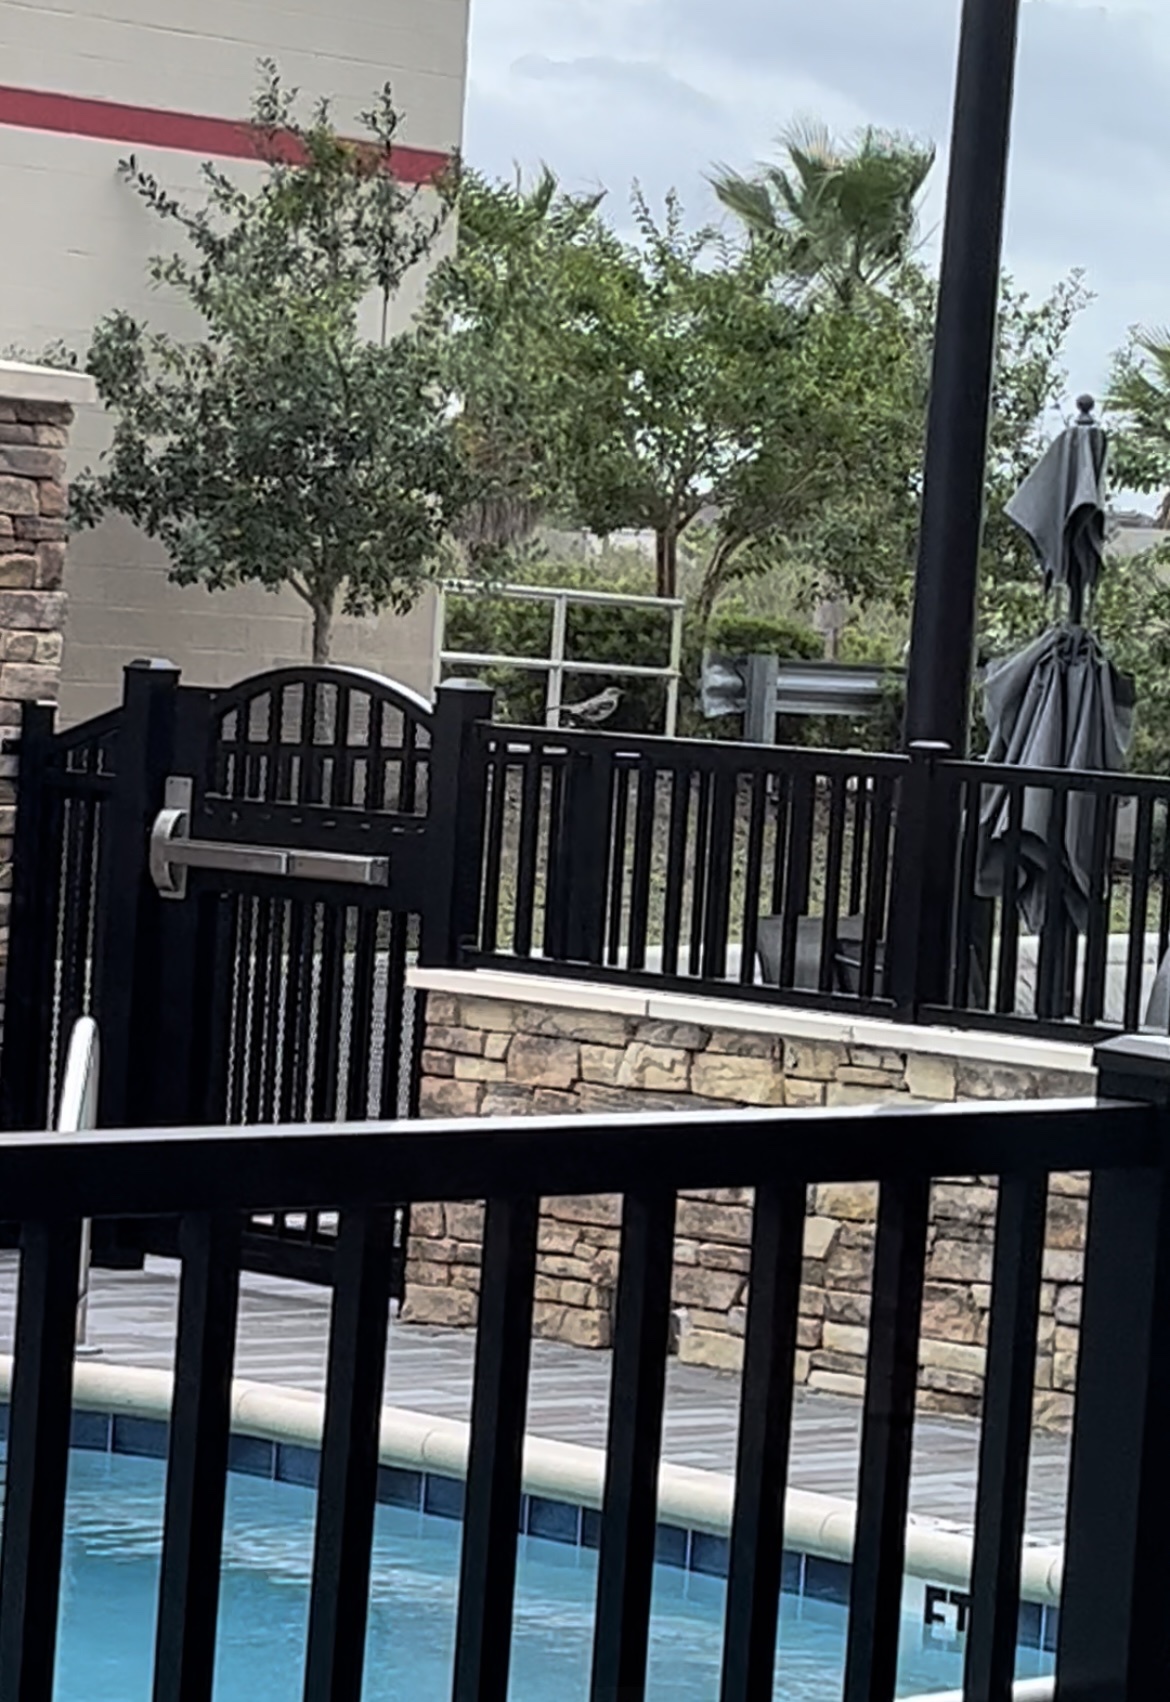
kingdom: Animalia
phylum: Chordata
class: Aves
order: Passeriformes
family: Mimidae
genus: Mimus
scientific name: Mimus polyglottos
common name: Northern mockingbird
